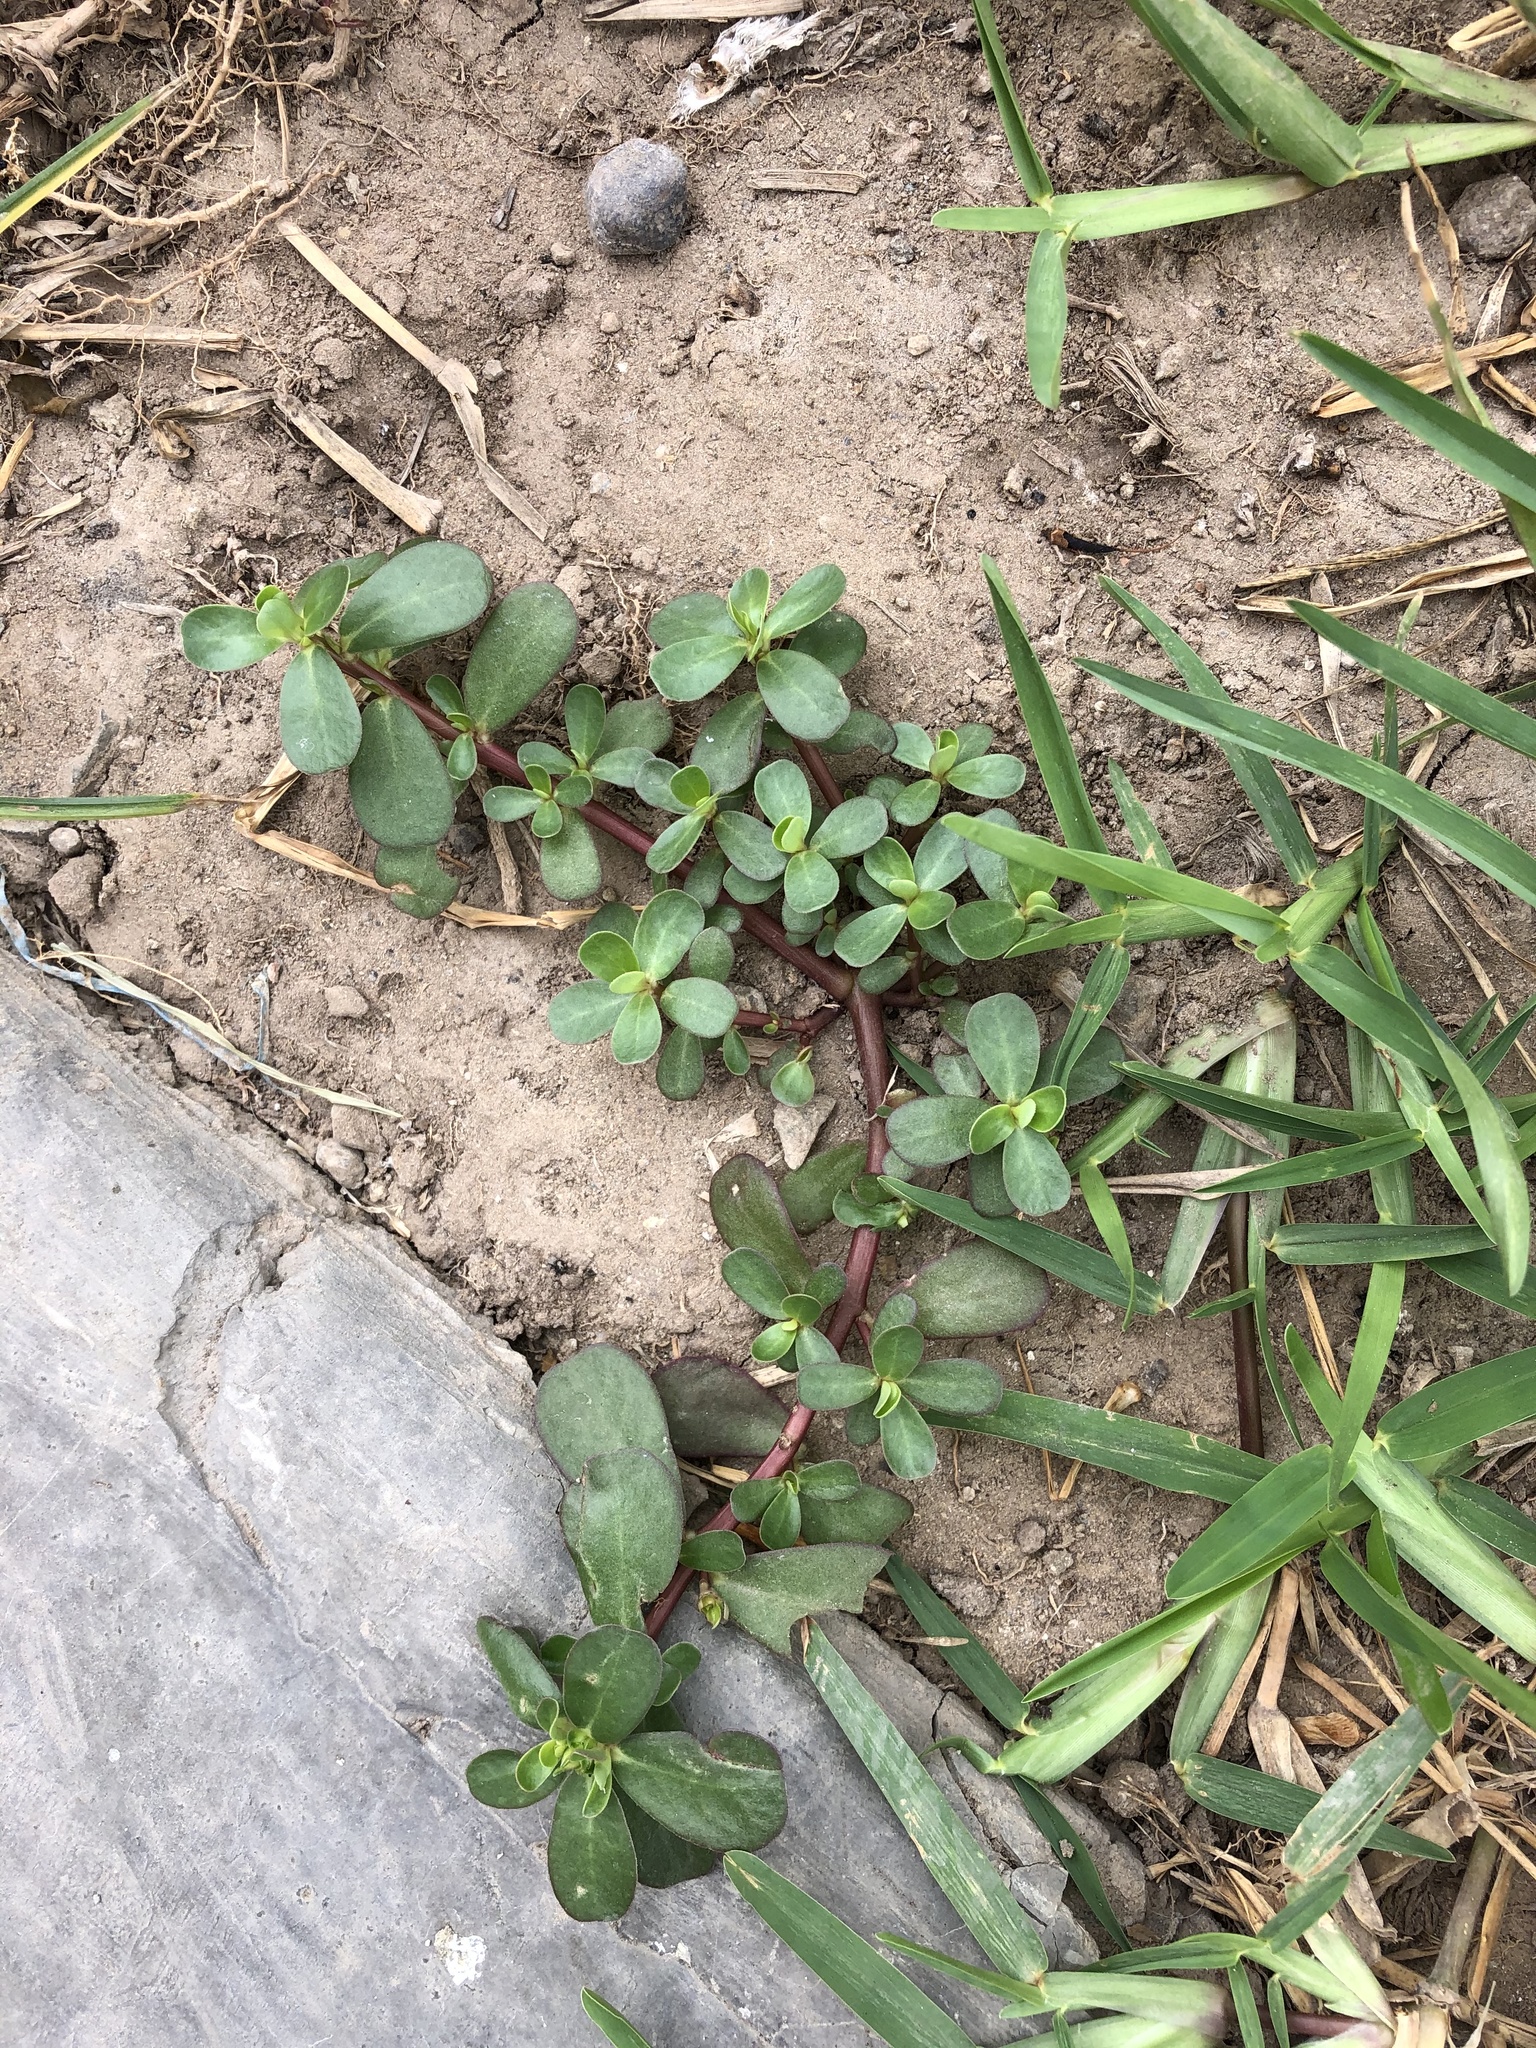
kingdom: Plantae
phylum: Tracheophyta
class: Magnoliopsida
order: Caryophyllales
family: Portulacaceae
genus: Portulaca
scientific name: Portulaca oleracea
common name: Common purslane
